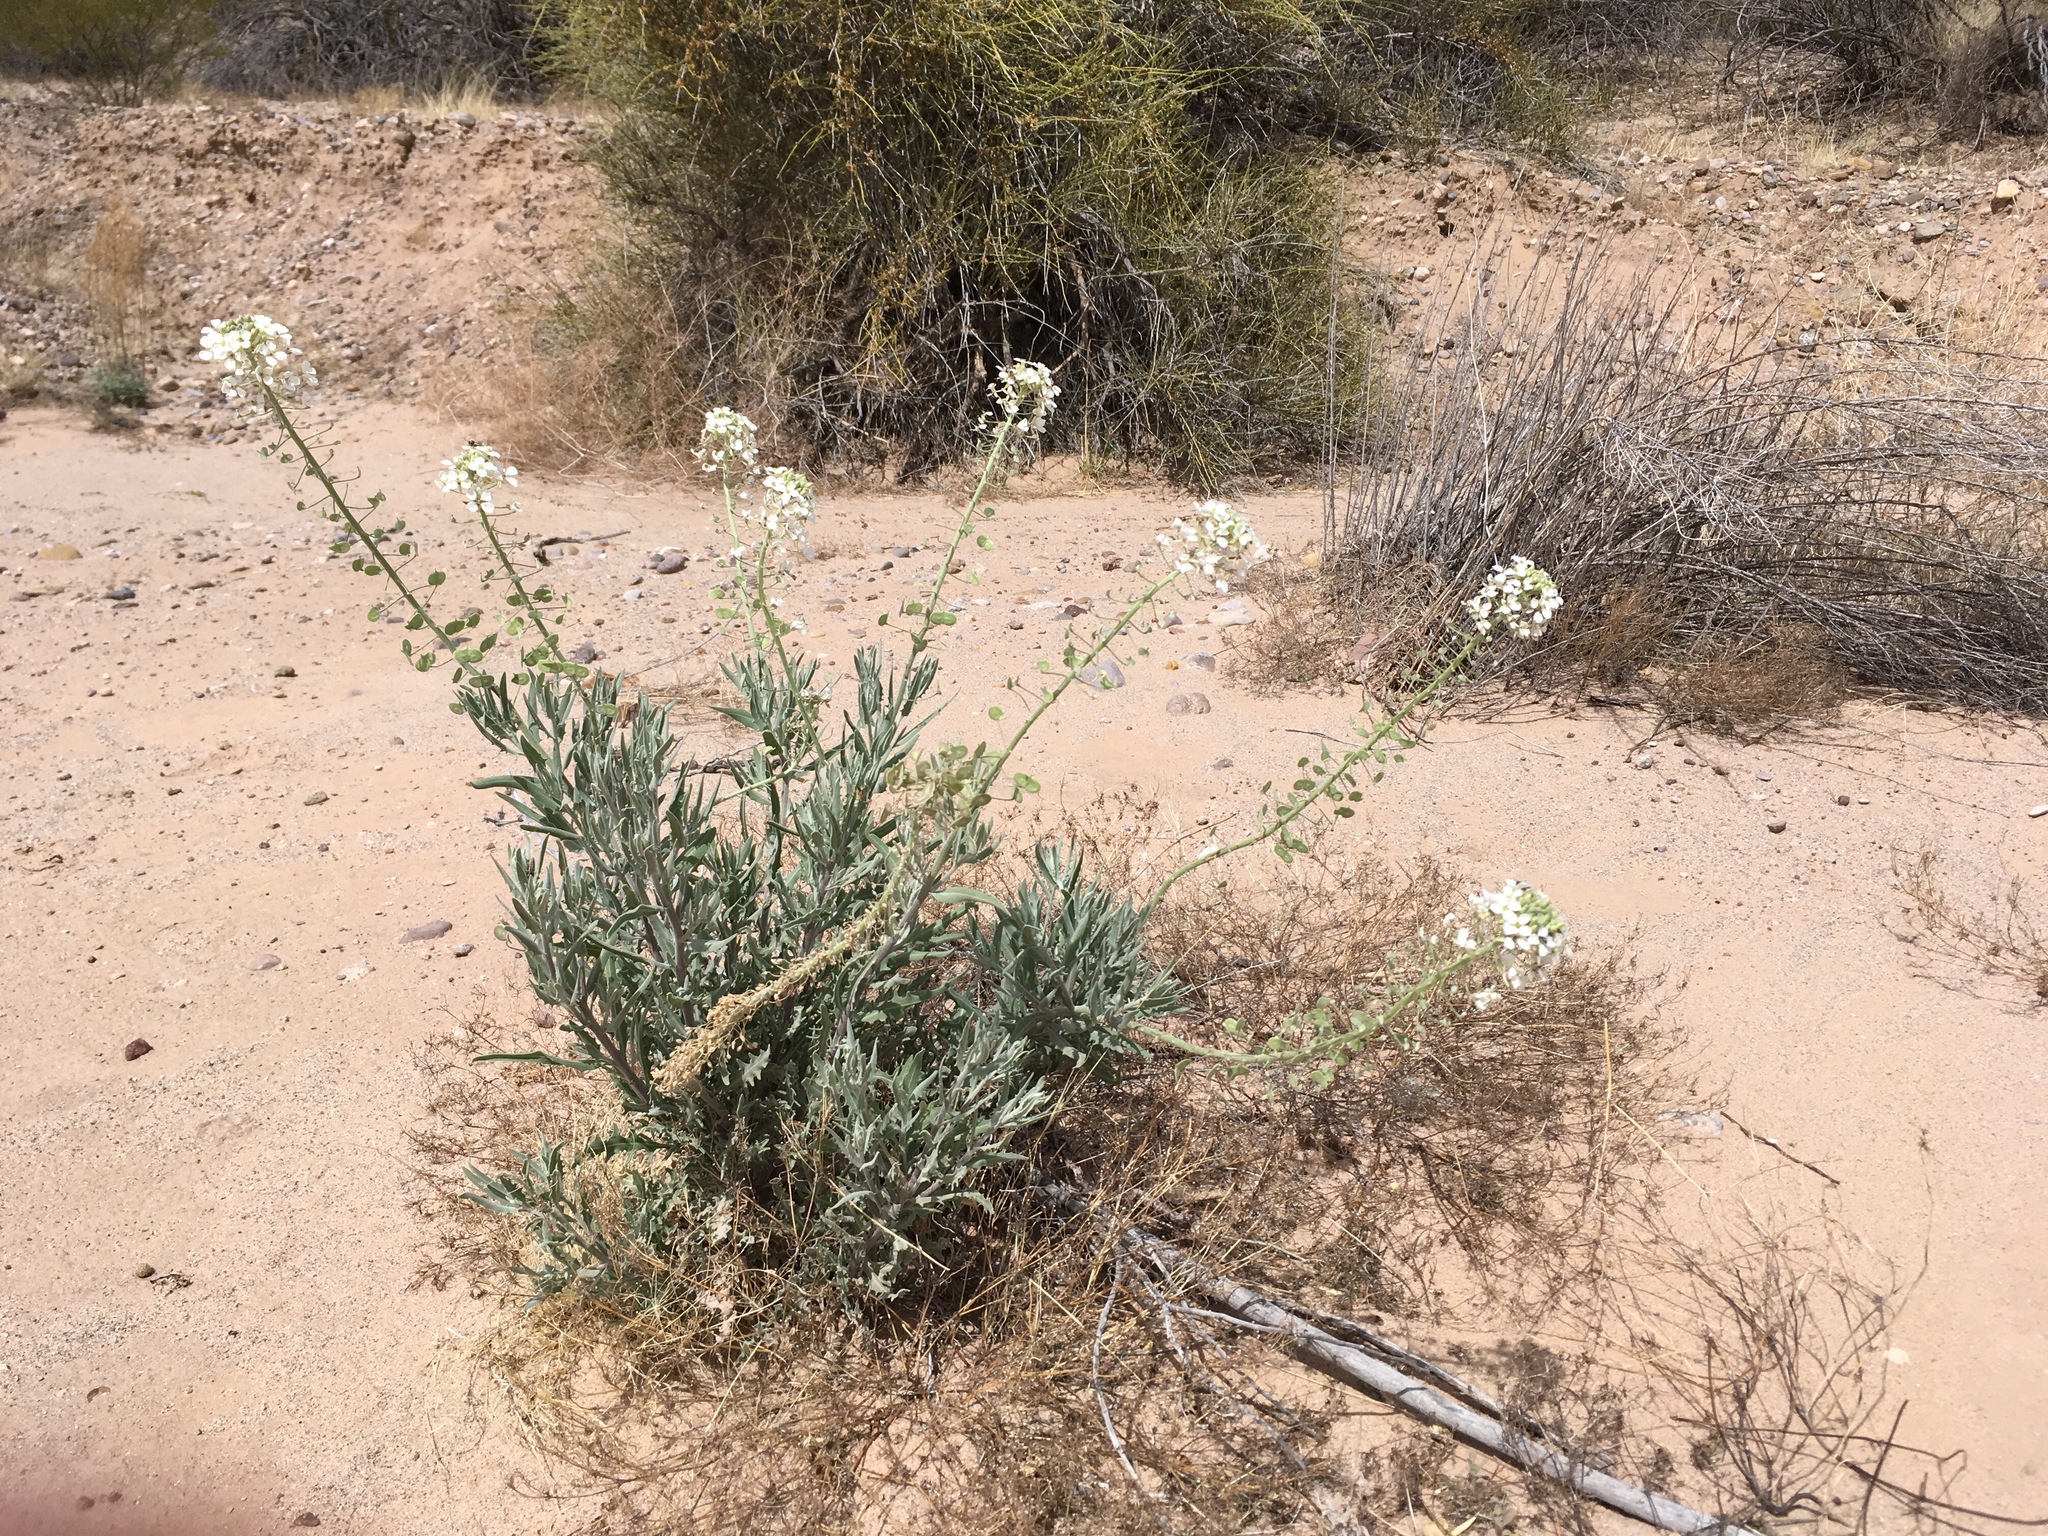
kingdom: Plantae
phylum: Tracheophyta
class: Magnoliopsida
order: Brassicales
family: Brassicaceae
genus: Dimorphocarpa
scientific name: Dimorphocarpa wislizenii
